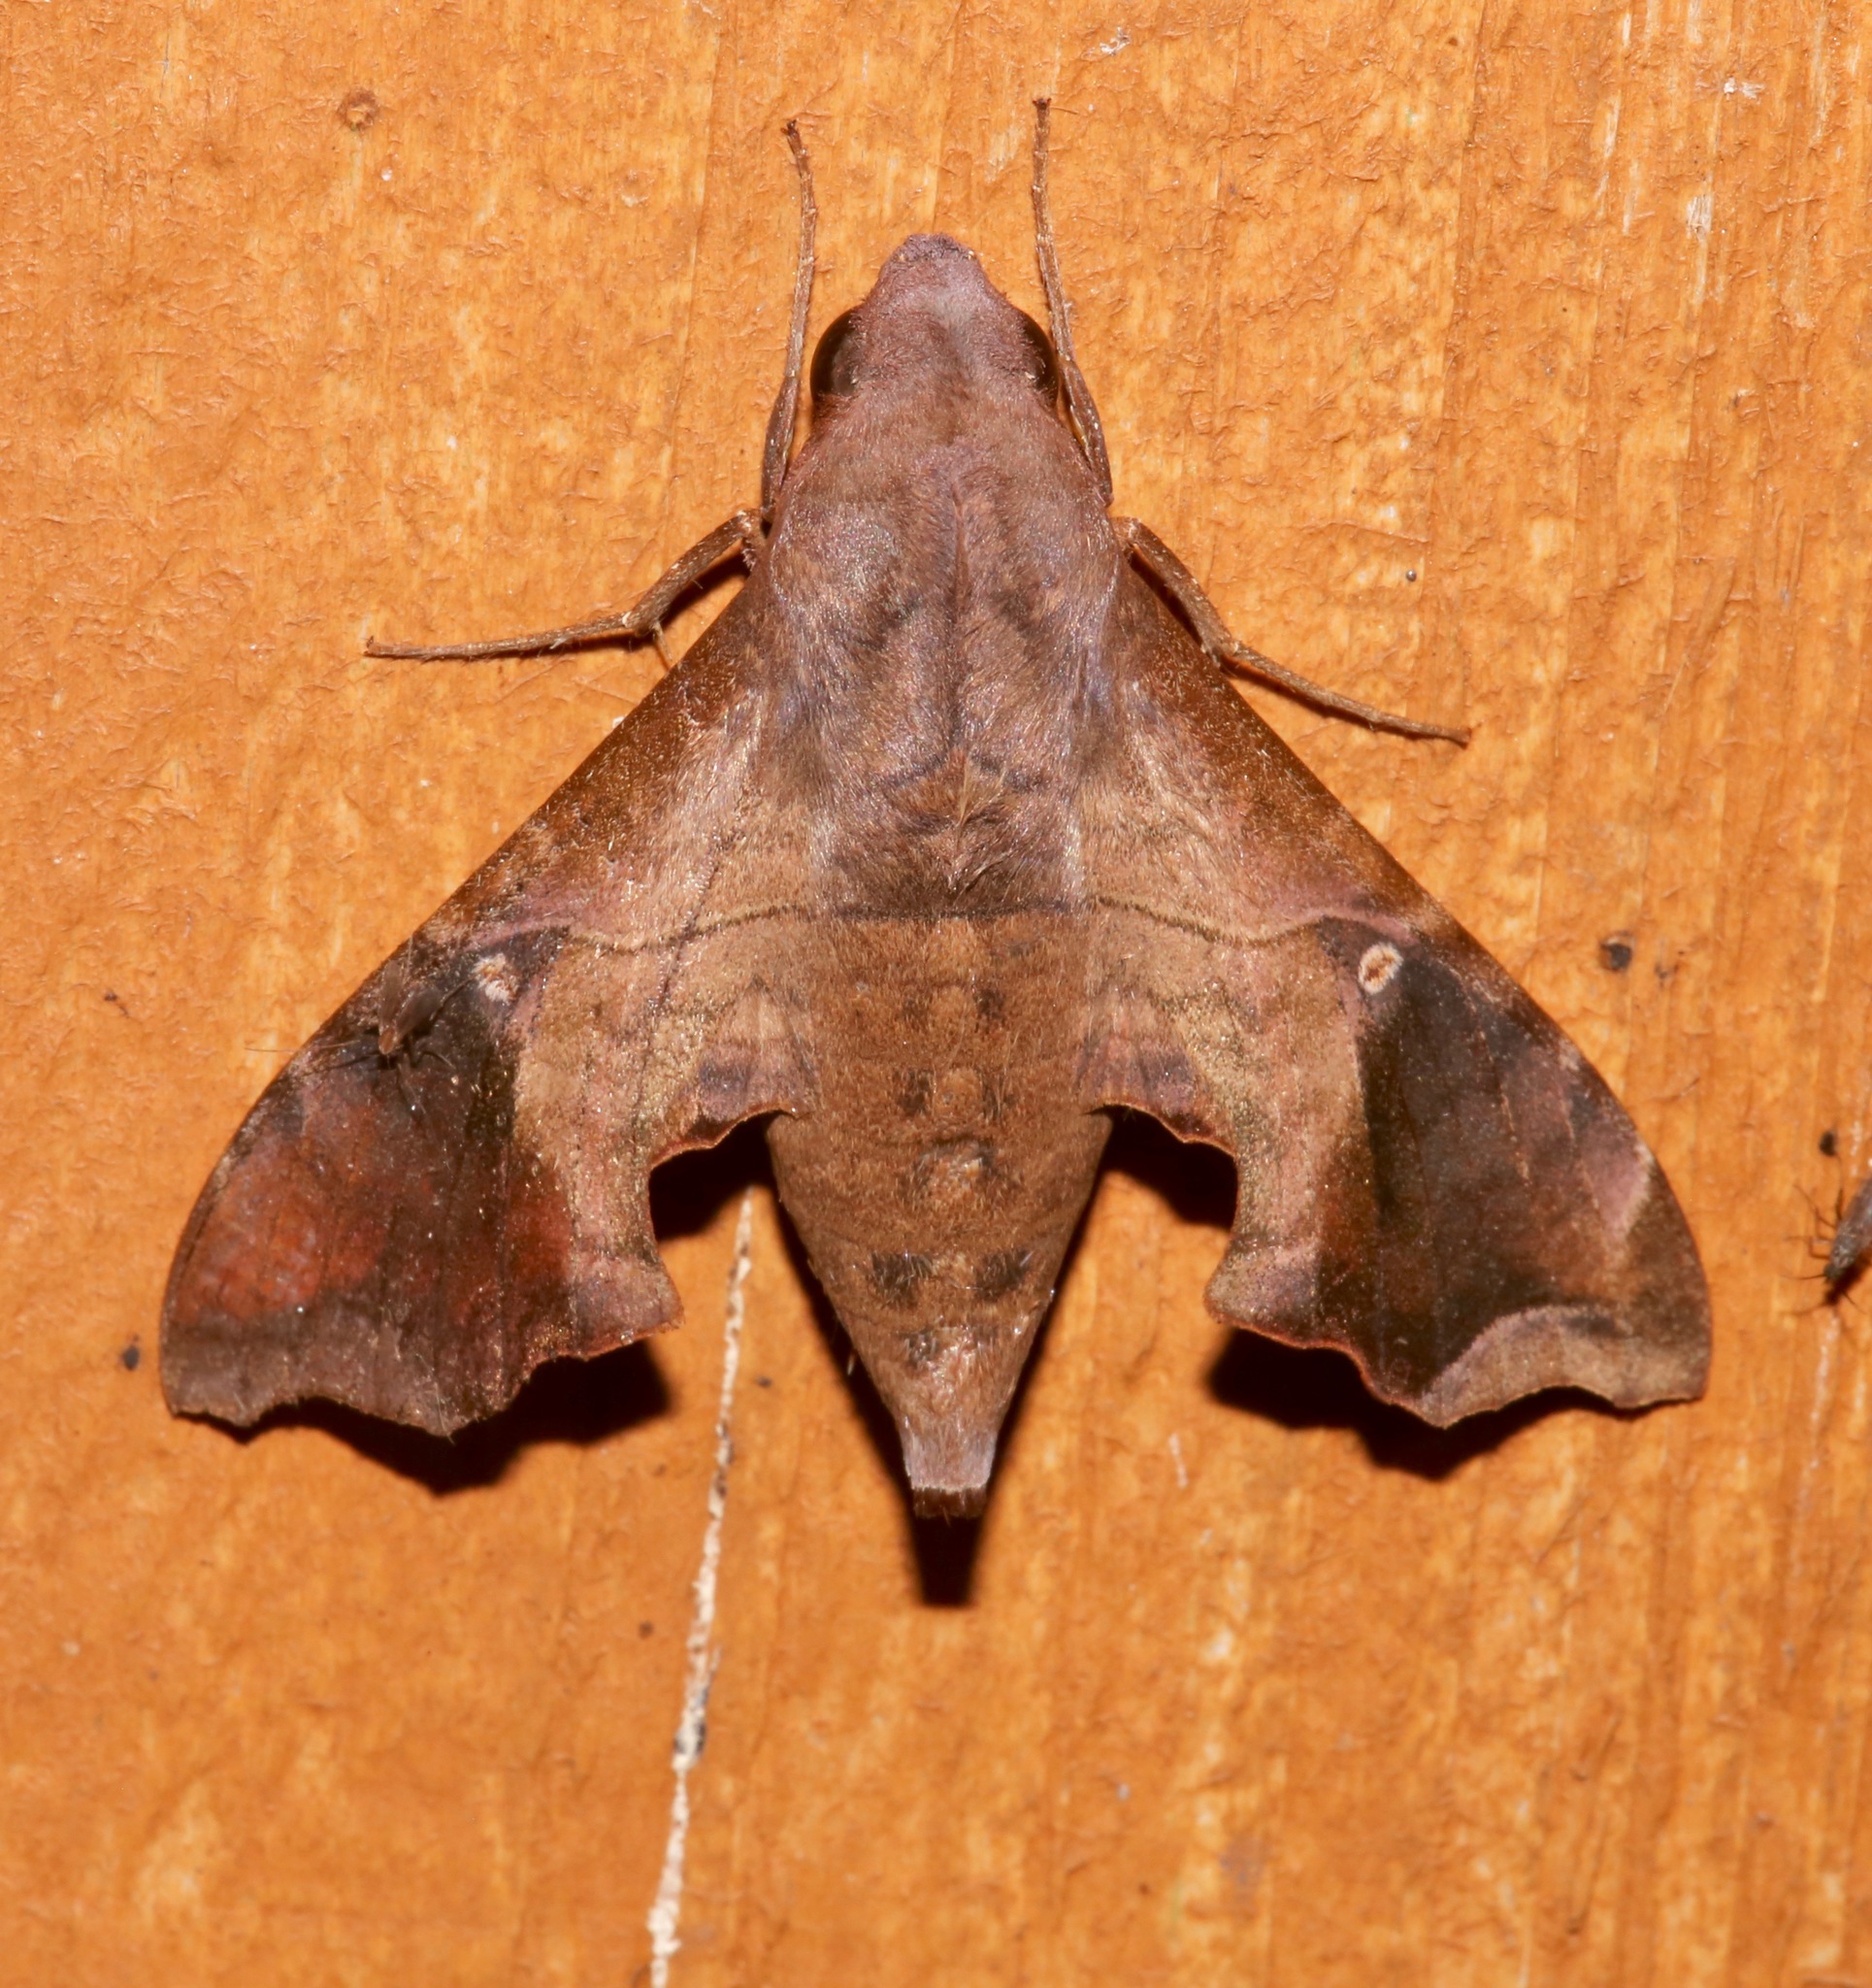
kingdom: Animalia
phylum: Arthropoda
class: Insecta
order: Lepidoptera
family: Sphingidae
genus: Enyo
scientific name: Enyo lugubris
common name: Mournful sphinx
